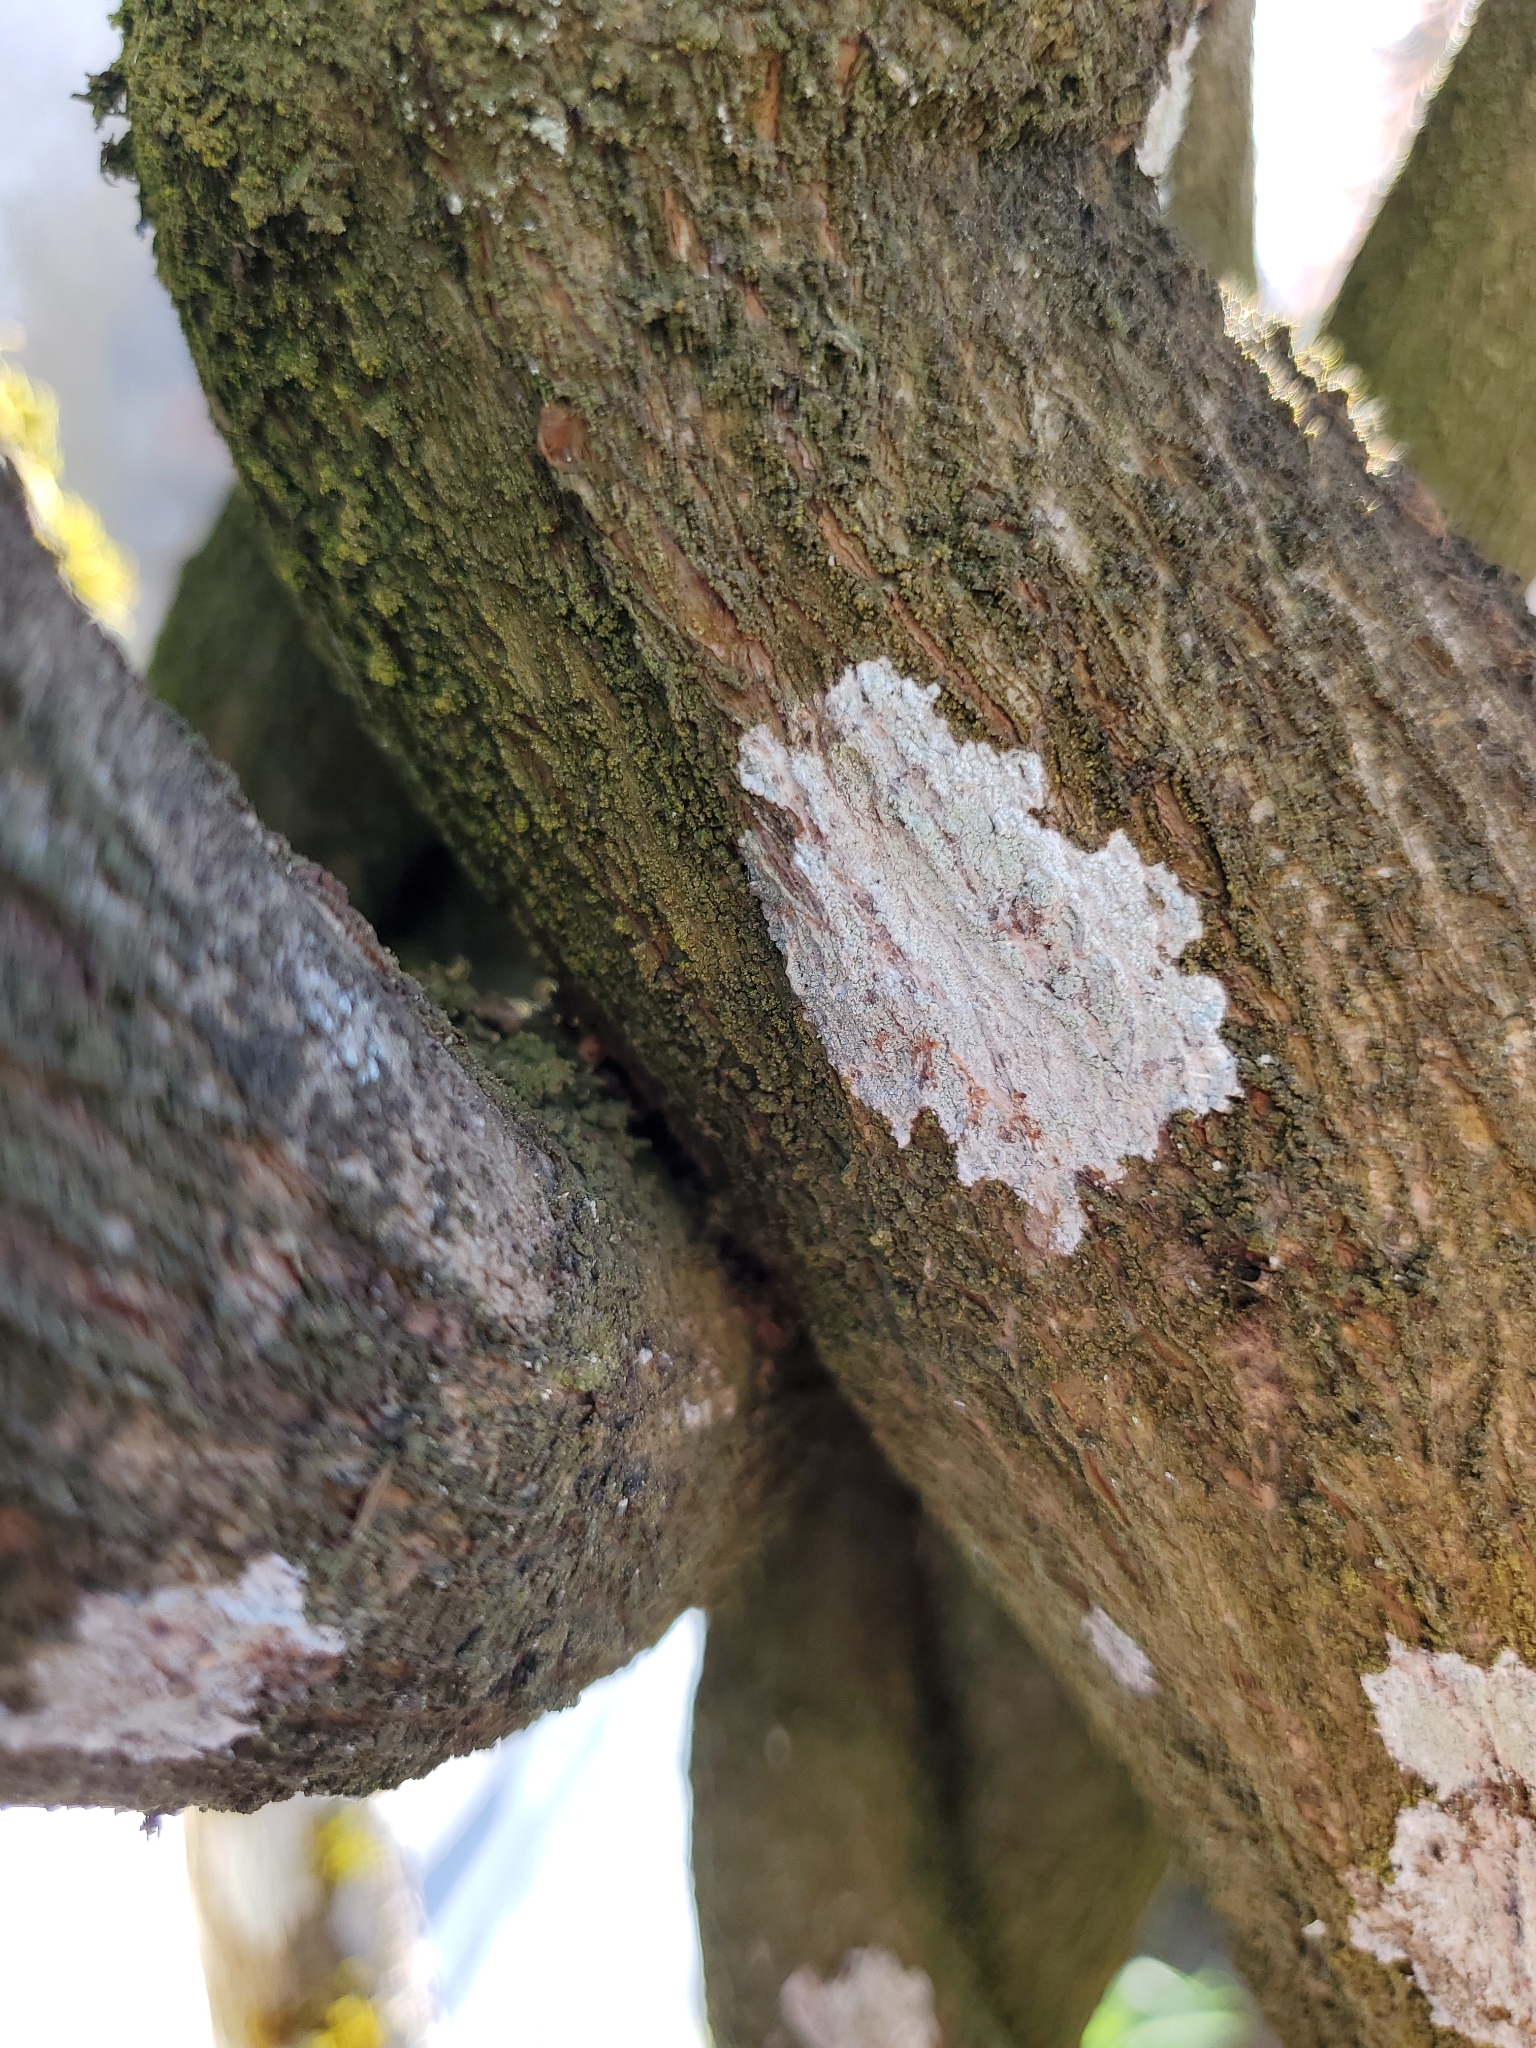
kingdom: Fungi
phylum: Ascomycota
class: Lecanoromycetes
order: Ostropales
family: Phlyctidaceae
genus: Phlyctis
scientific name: Phlyctis argena
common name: Whitewash lichen
